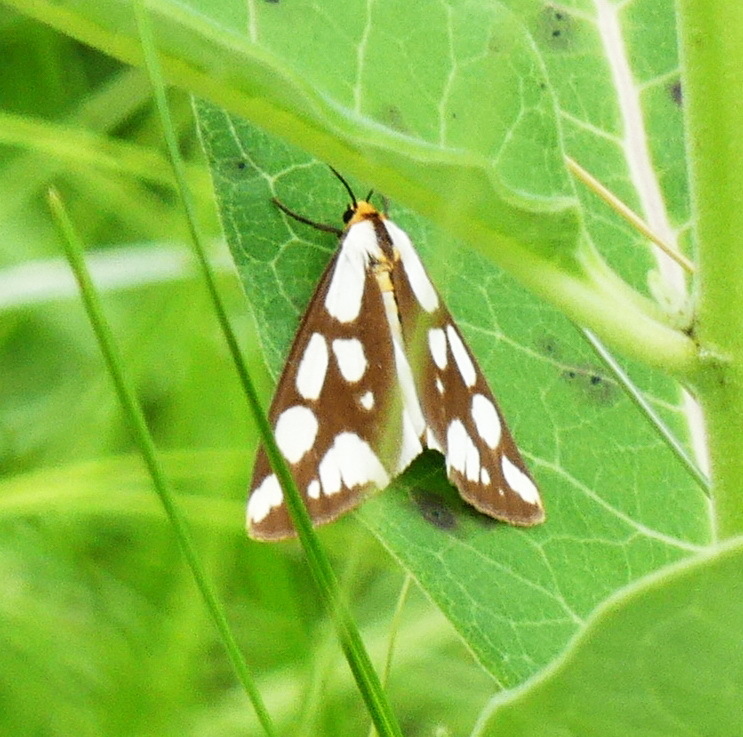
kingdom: Animalia
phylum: Arthropoda
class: Insecta
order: Lepidoptera
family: Erebidae
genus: Haploa
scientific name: Haploa confusa
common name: Confused haploa moth
